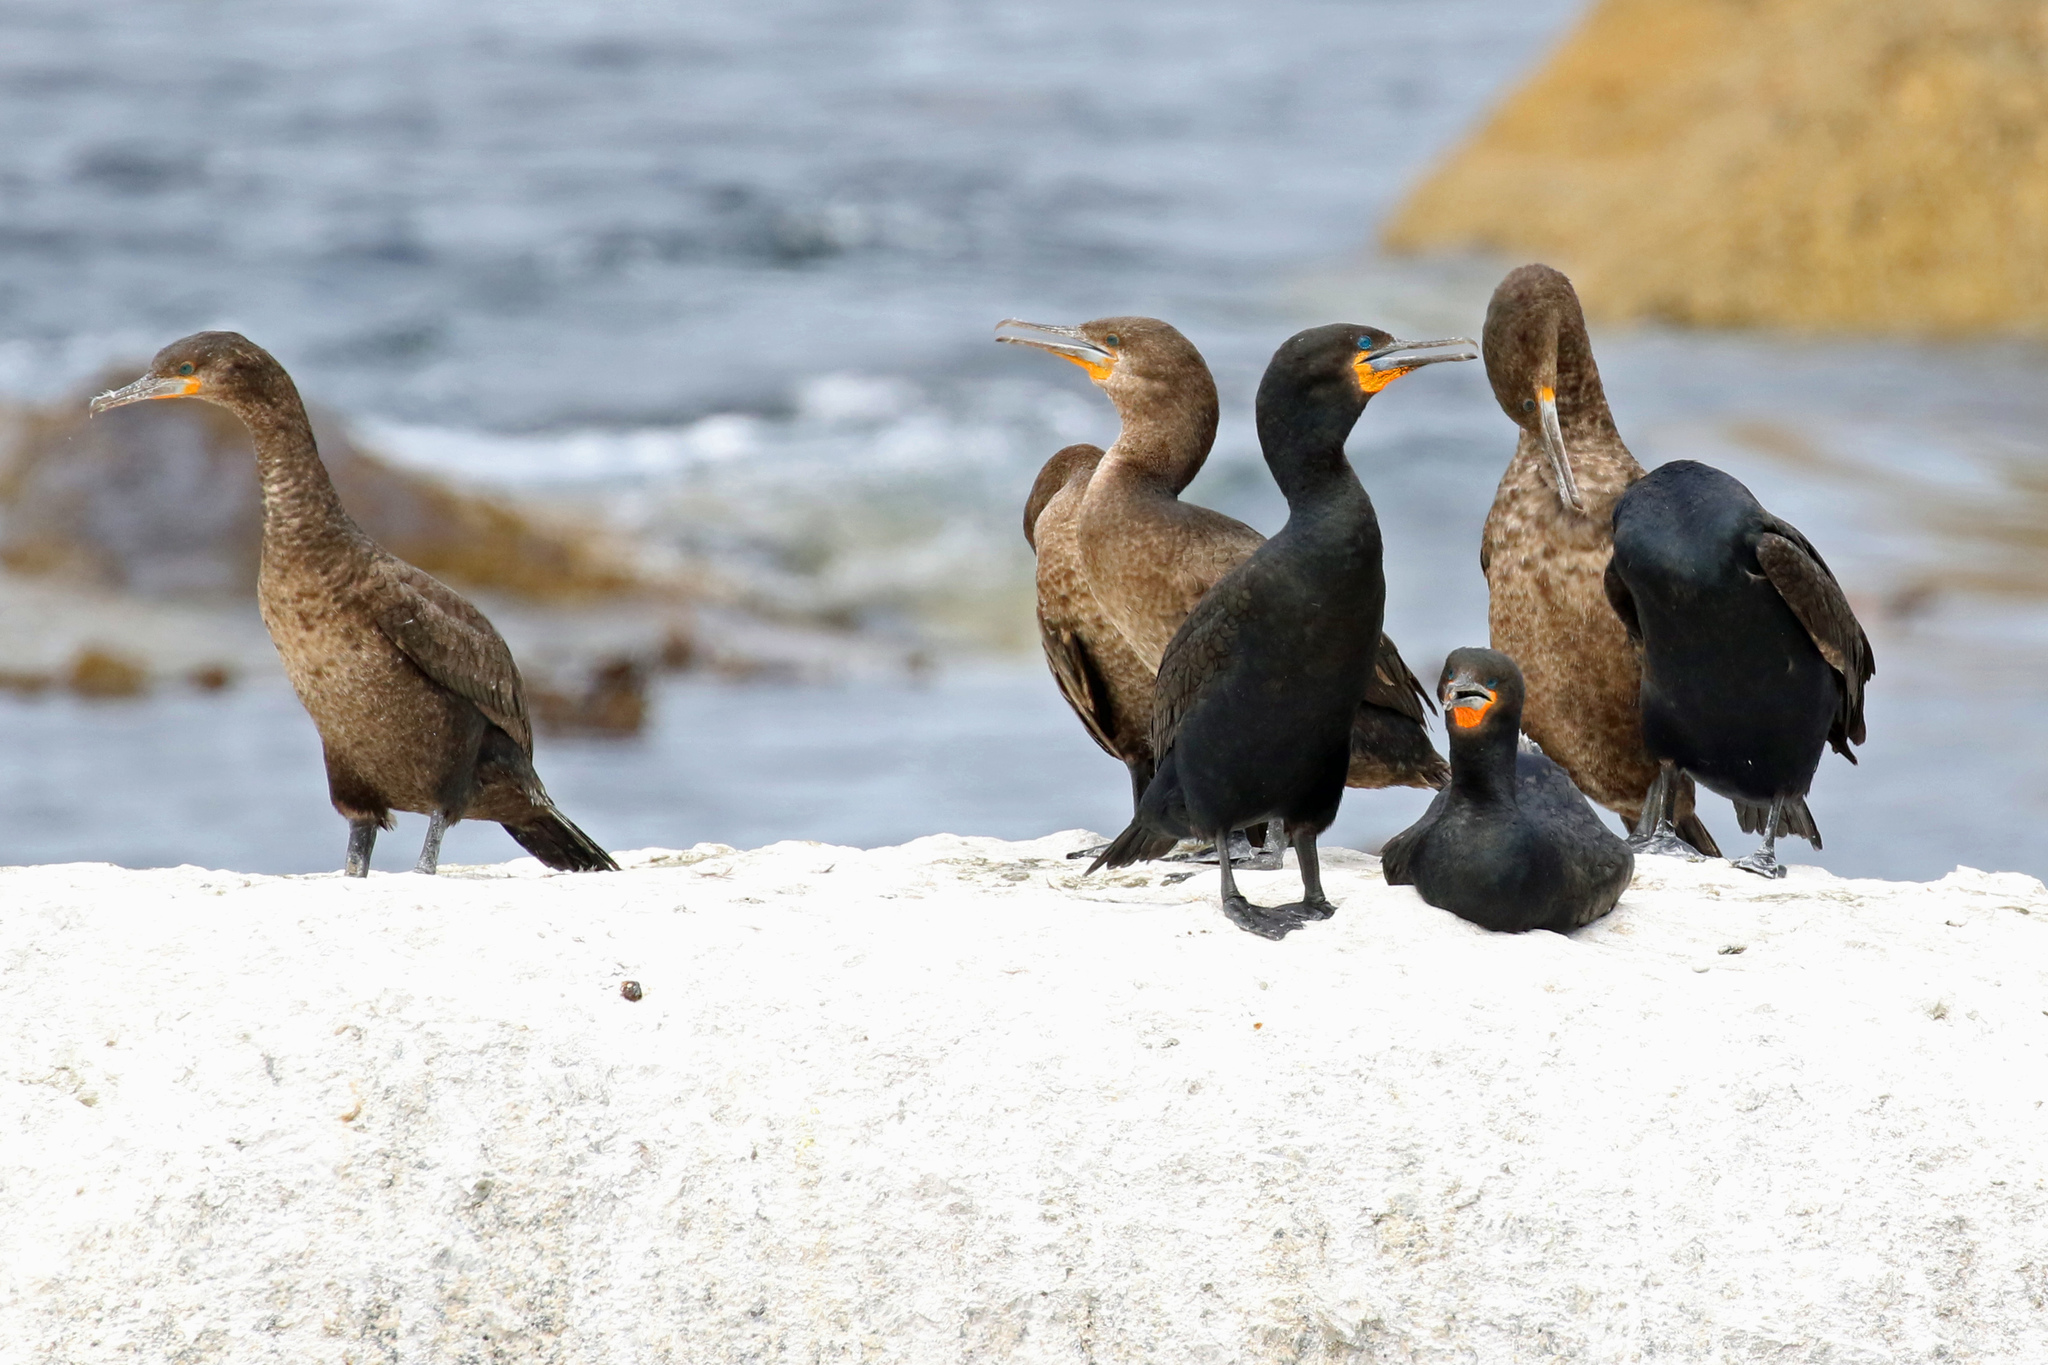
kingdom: Animalia
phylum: Chordata
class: Aves
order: Suliformes
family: Phalacrocoracidae
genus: Phalacrocorax
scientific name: Phalacrocorax capensis
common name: Cape cormorant
